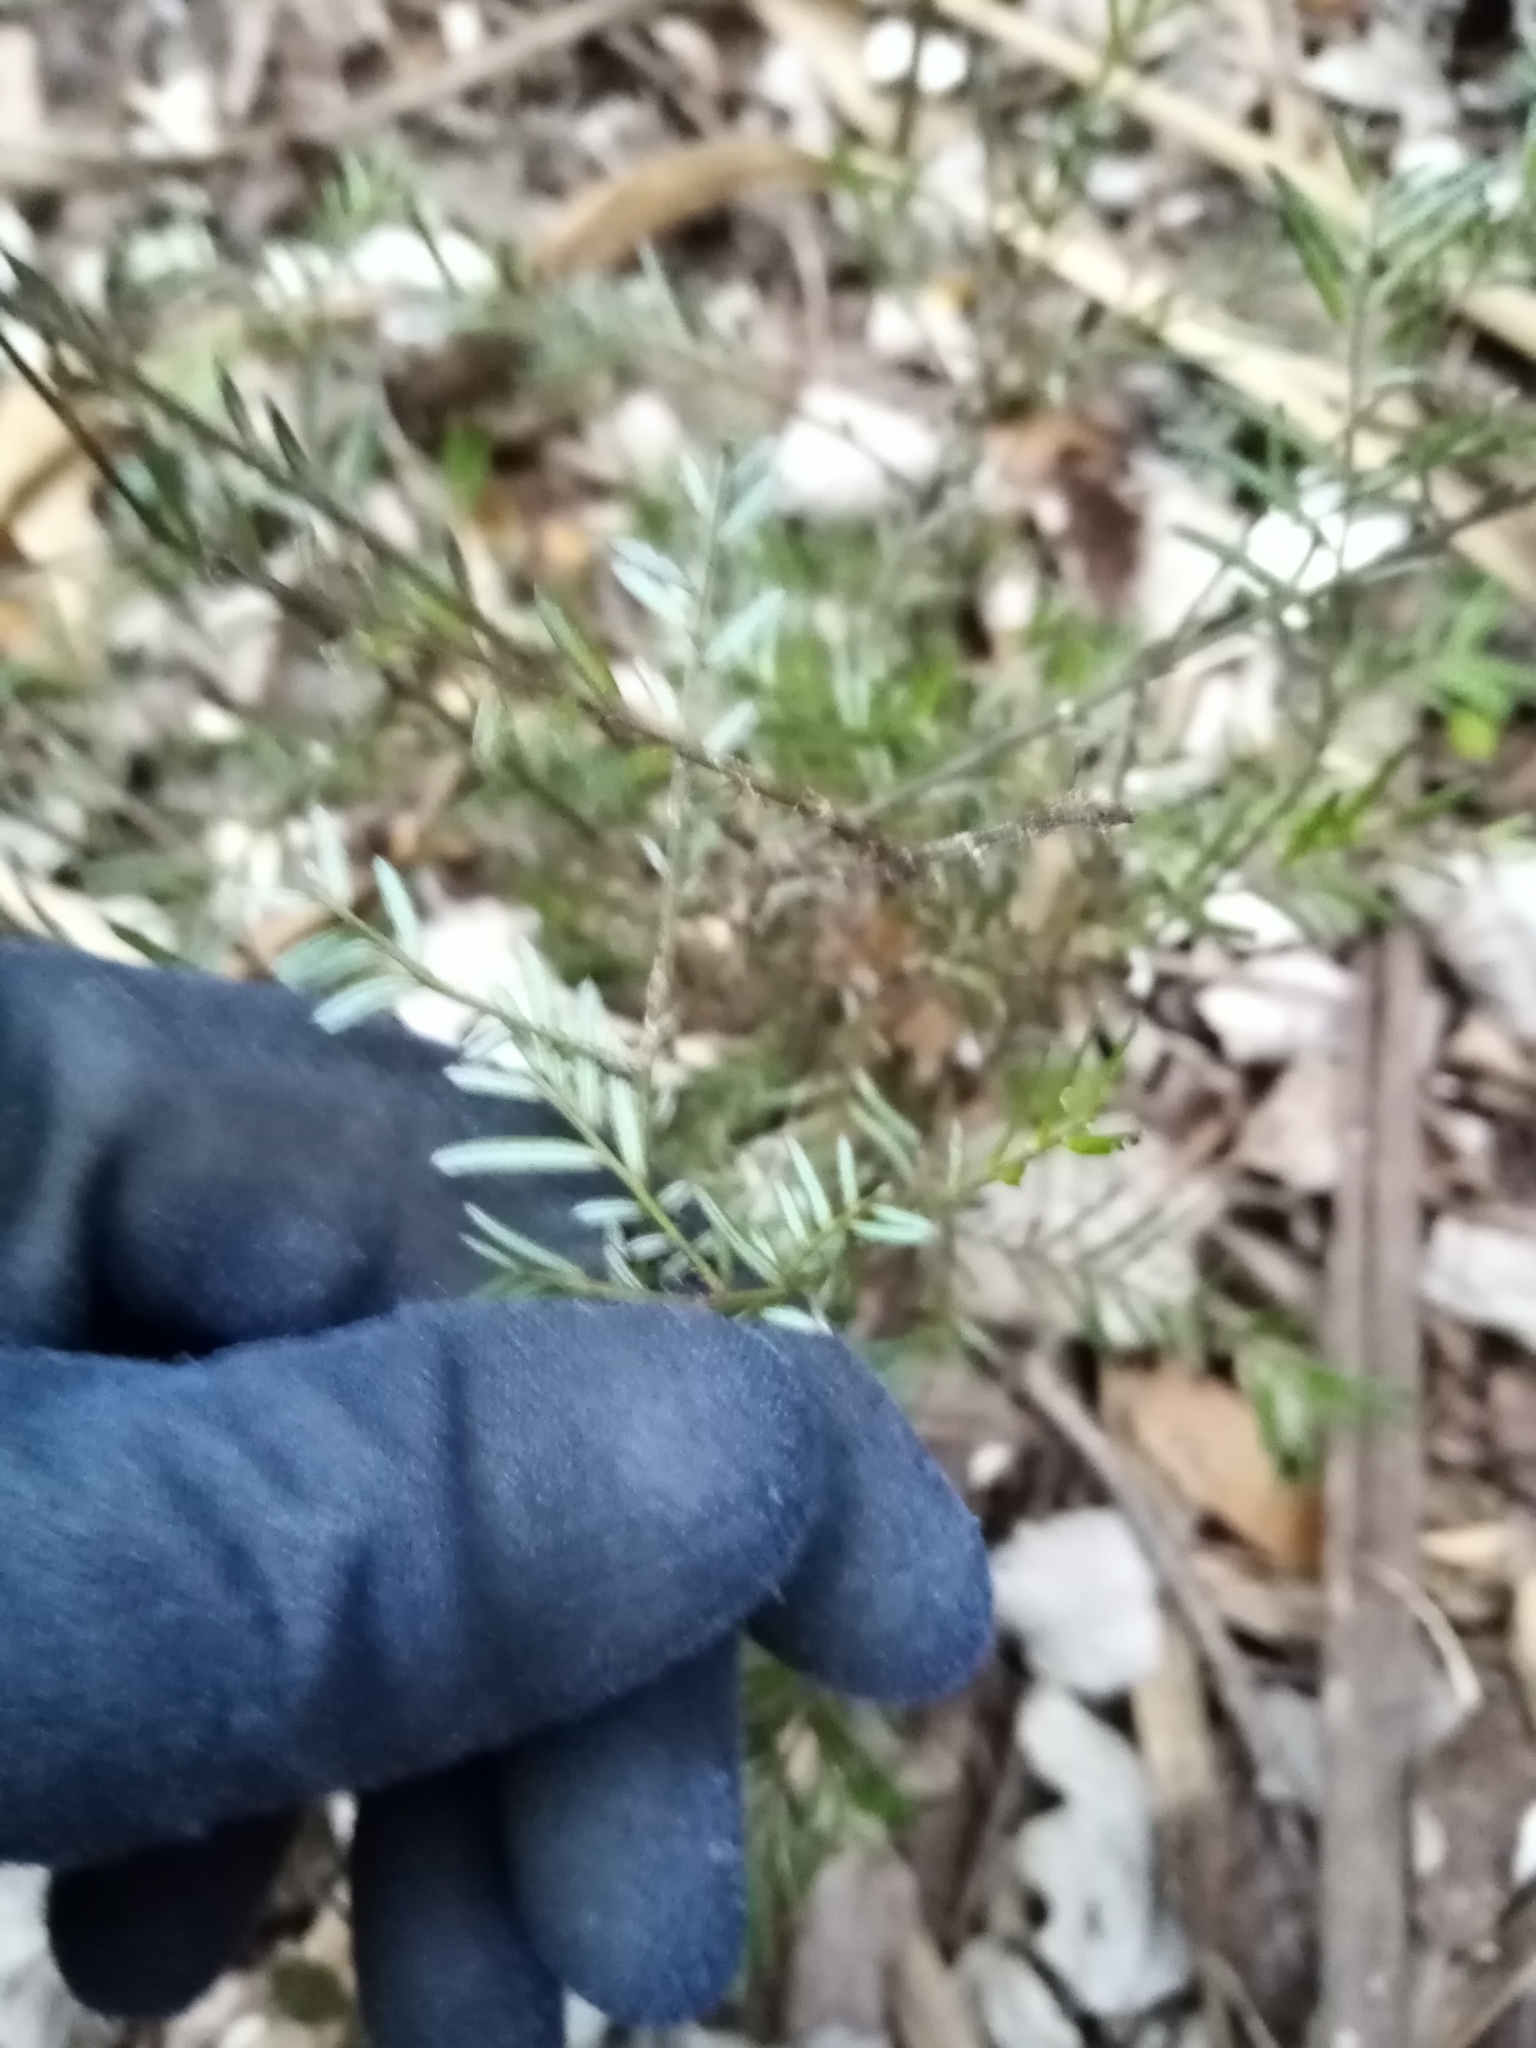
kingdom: Plantae
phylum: Tracheophyta
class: Pinopsida
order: Pinales
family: Podocarpaceae
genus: Prumnopitys
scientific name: Prumnopitys taxifolia
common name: Matai
